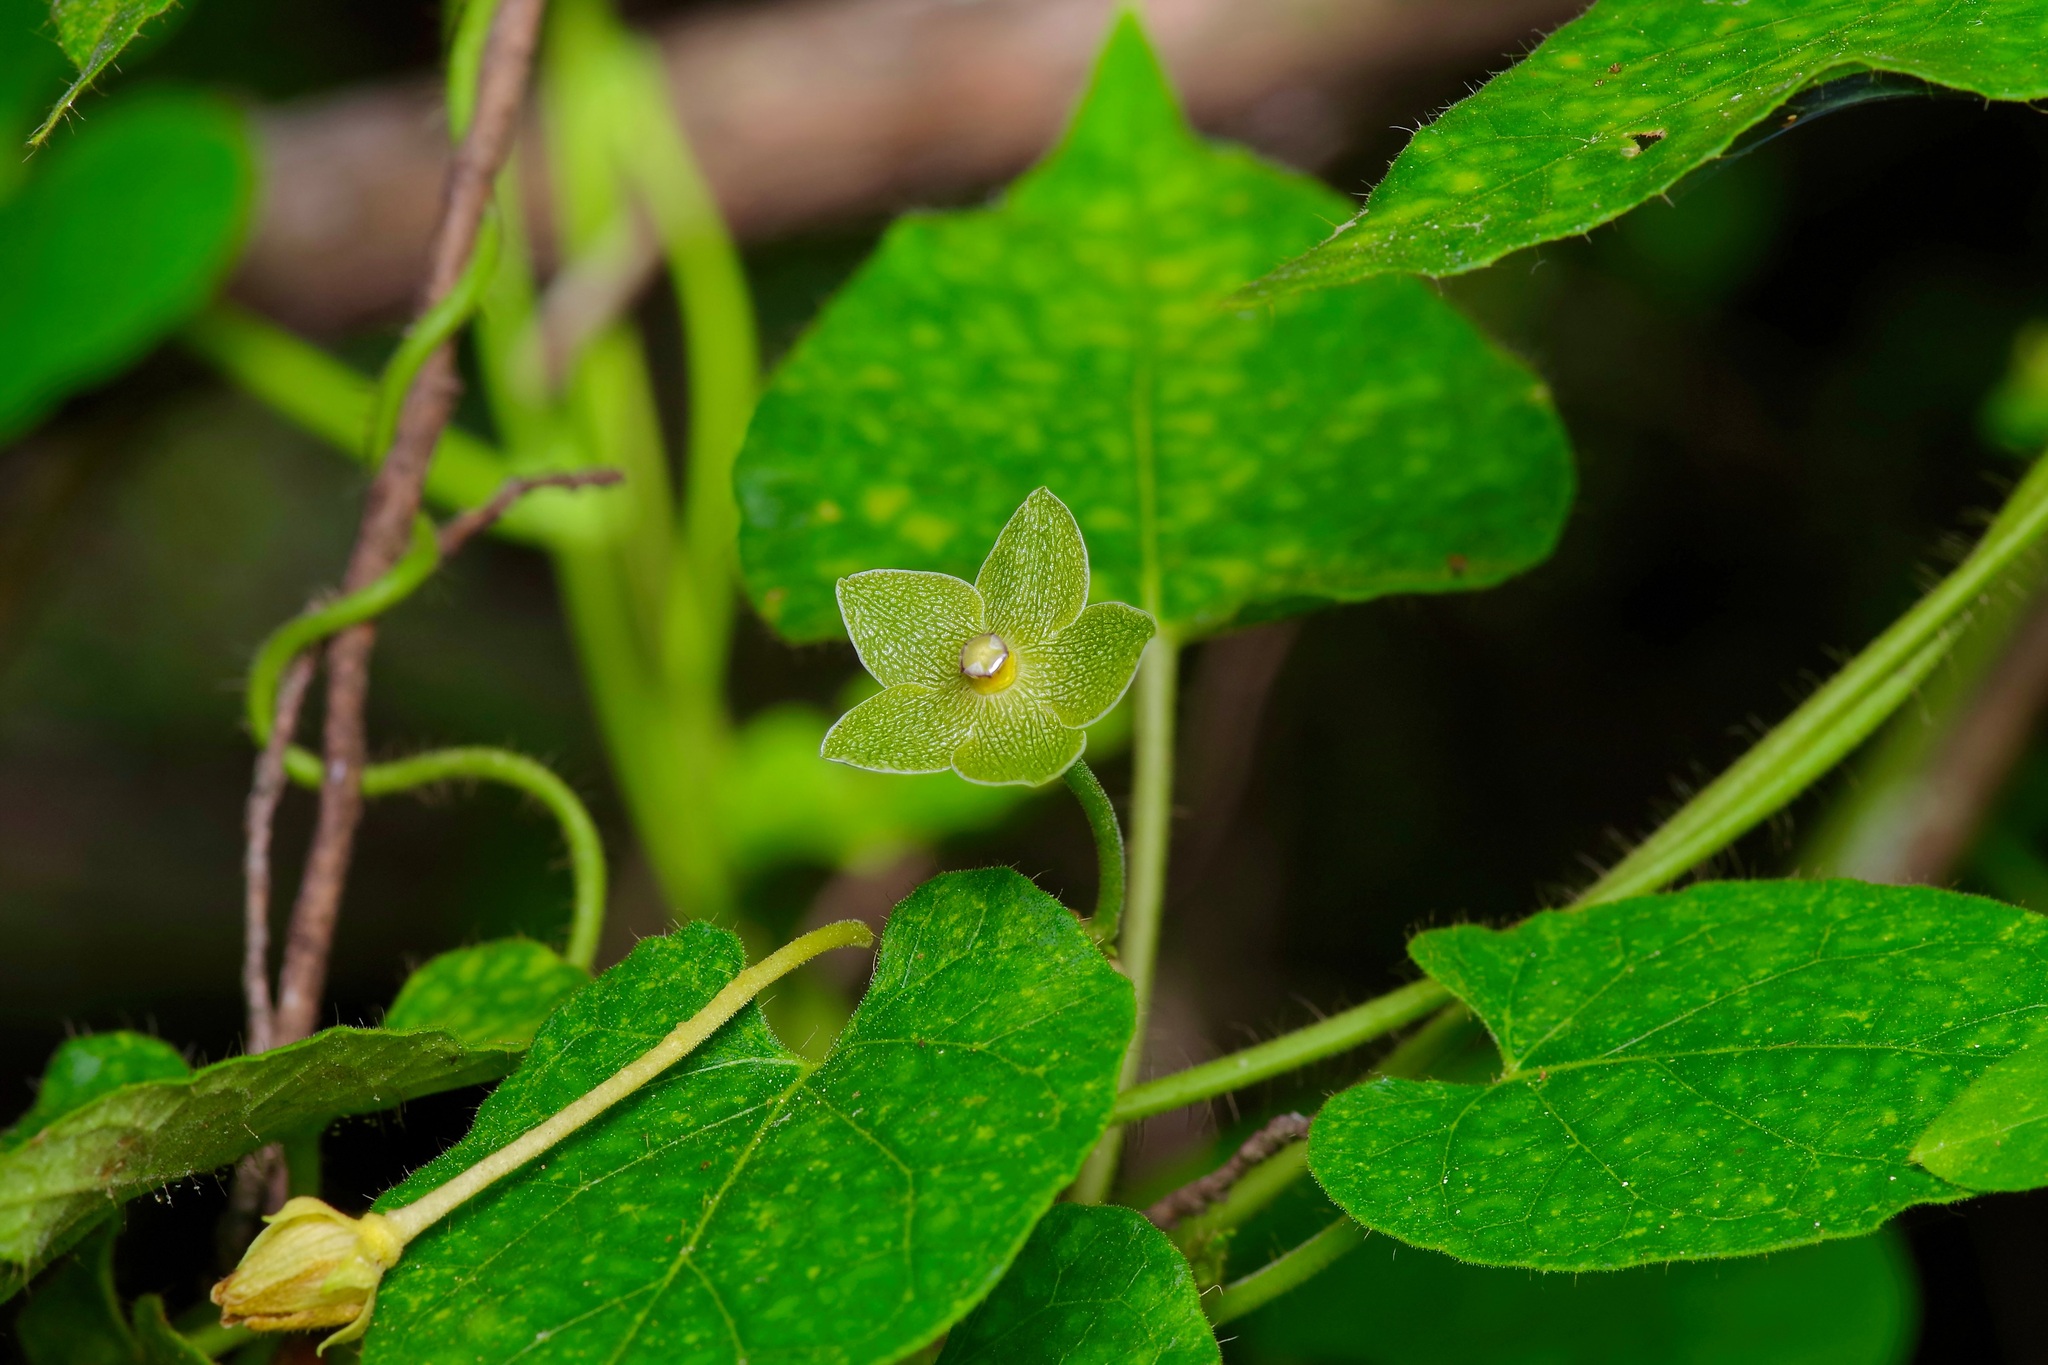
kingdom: Plantae
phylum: Tracheophyta
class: Magnoliopsida
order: Gentianales
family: Apocynaceae
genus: Dictyanthus
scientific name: Dictyanthus reticulatus
